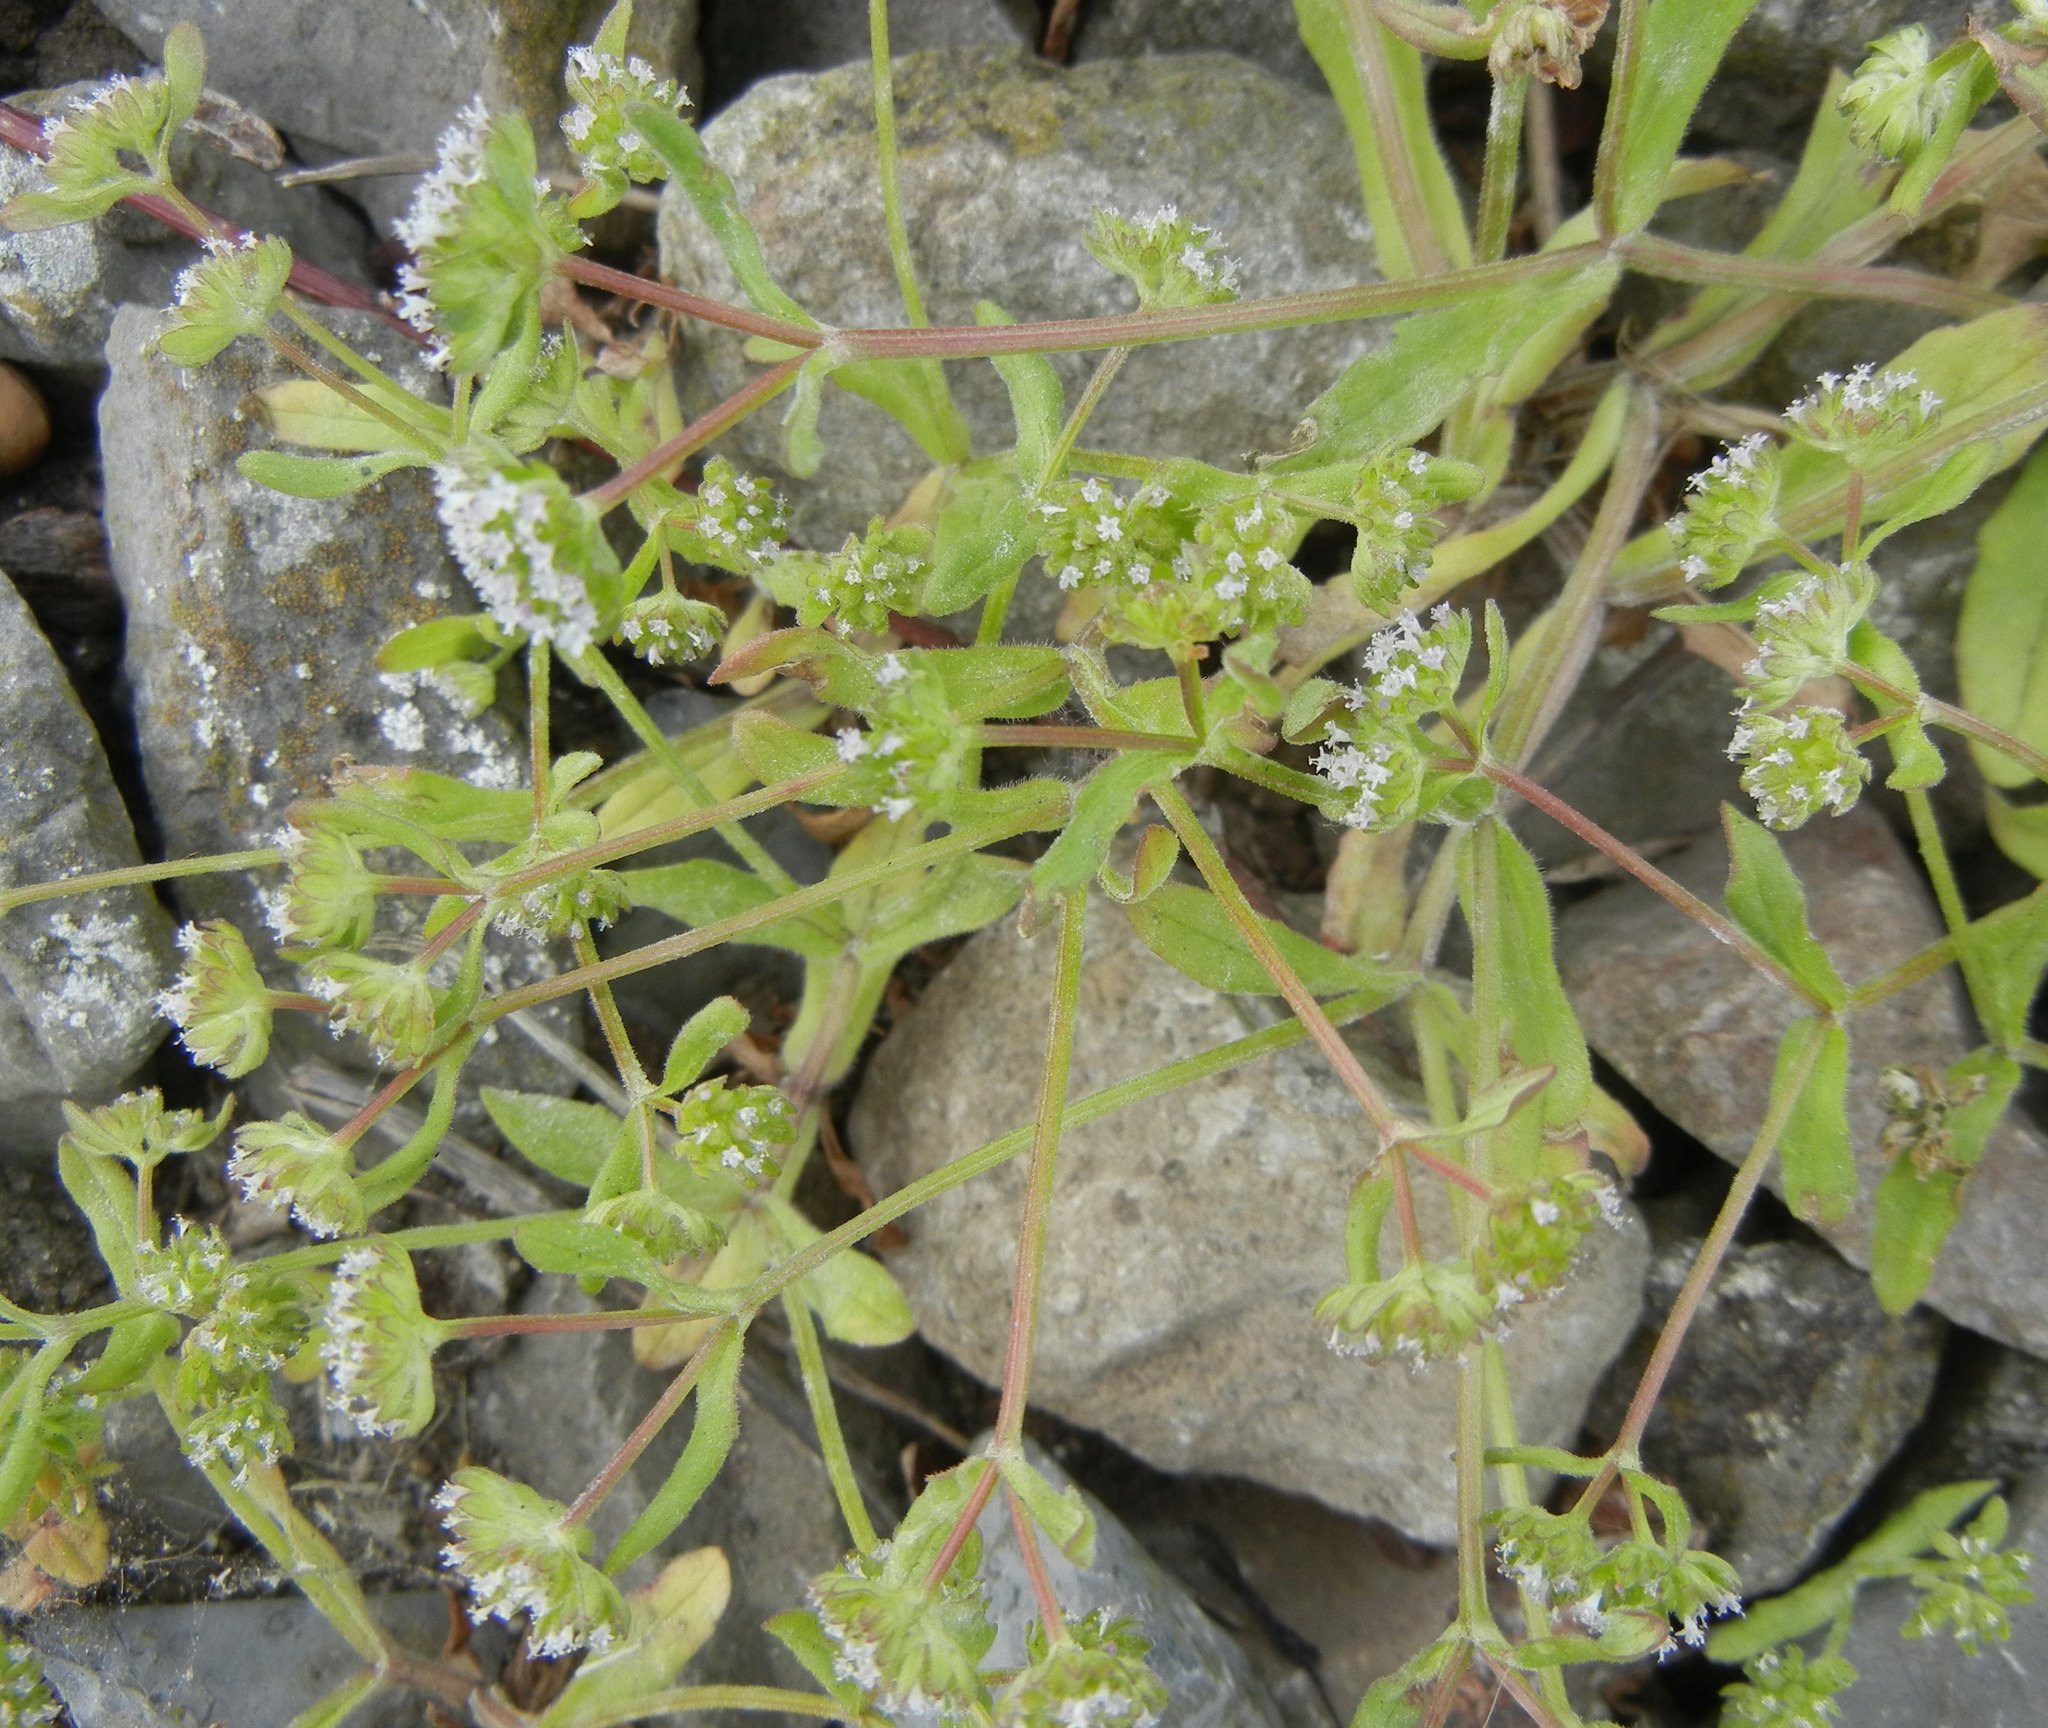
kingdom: Plantae
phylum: Tracheophyta
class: Magnoliopsida
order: Dipsacales
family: Caprifoliaceae
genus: Valerianella
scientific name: Valerianella locusta
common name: Common cornsalad
